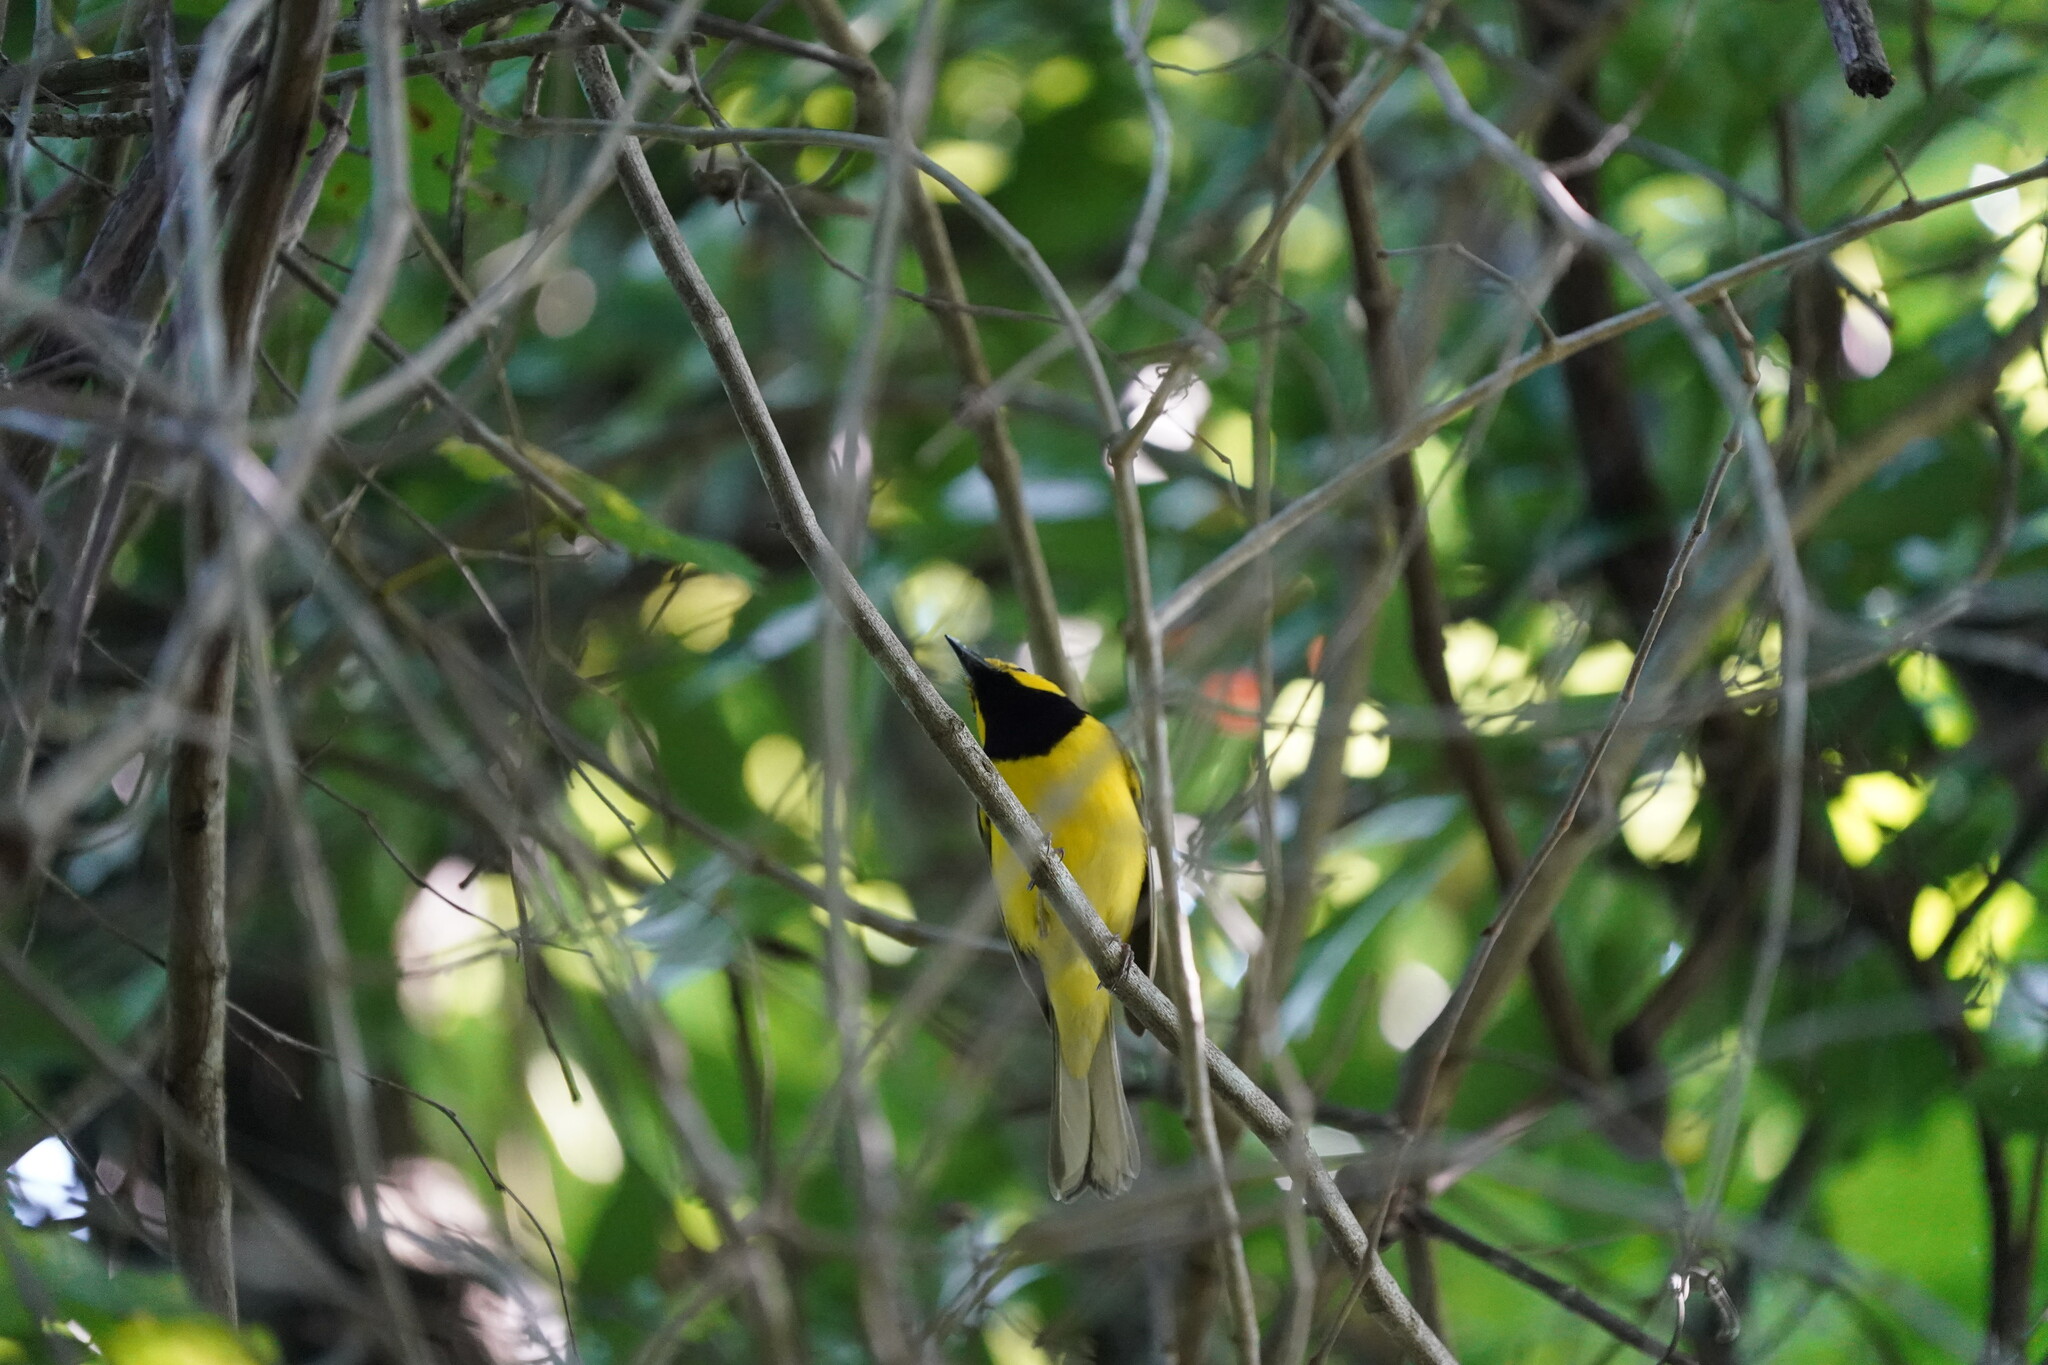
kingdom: Animalia
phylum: Chordata
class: Aves
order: Passeriformes
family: Parulidae
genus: Setophaga
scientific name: Setophaga citrina
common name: Hooded warbler
